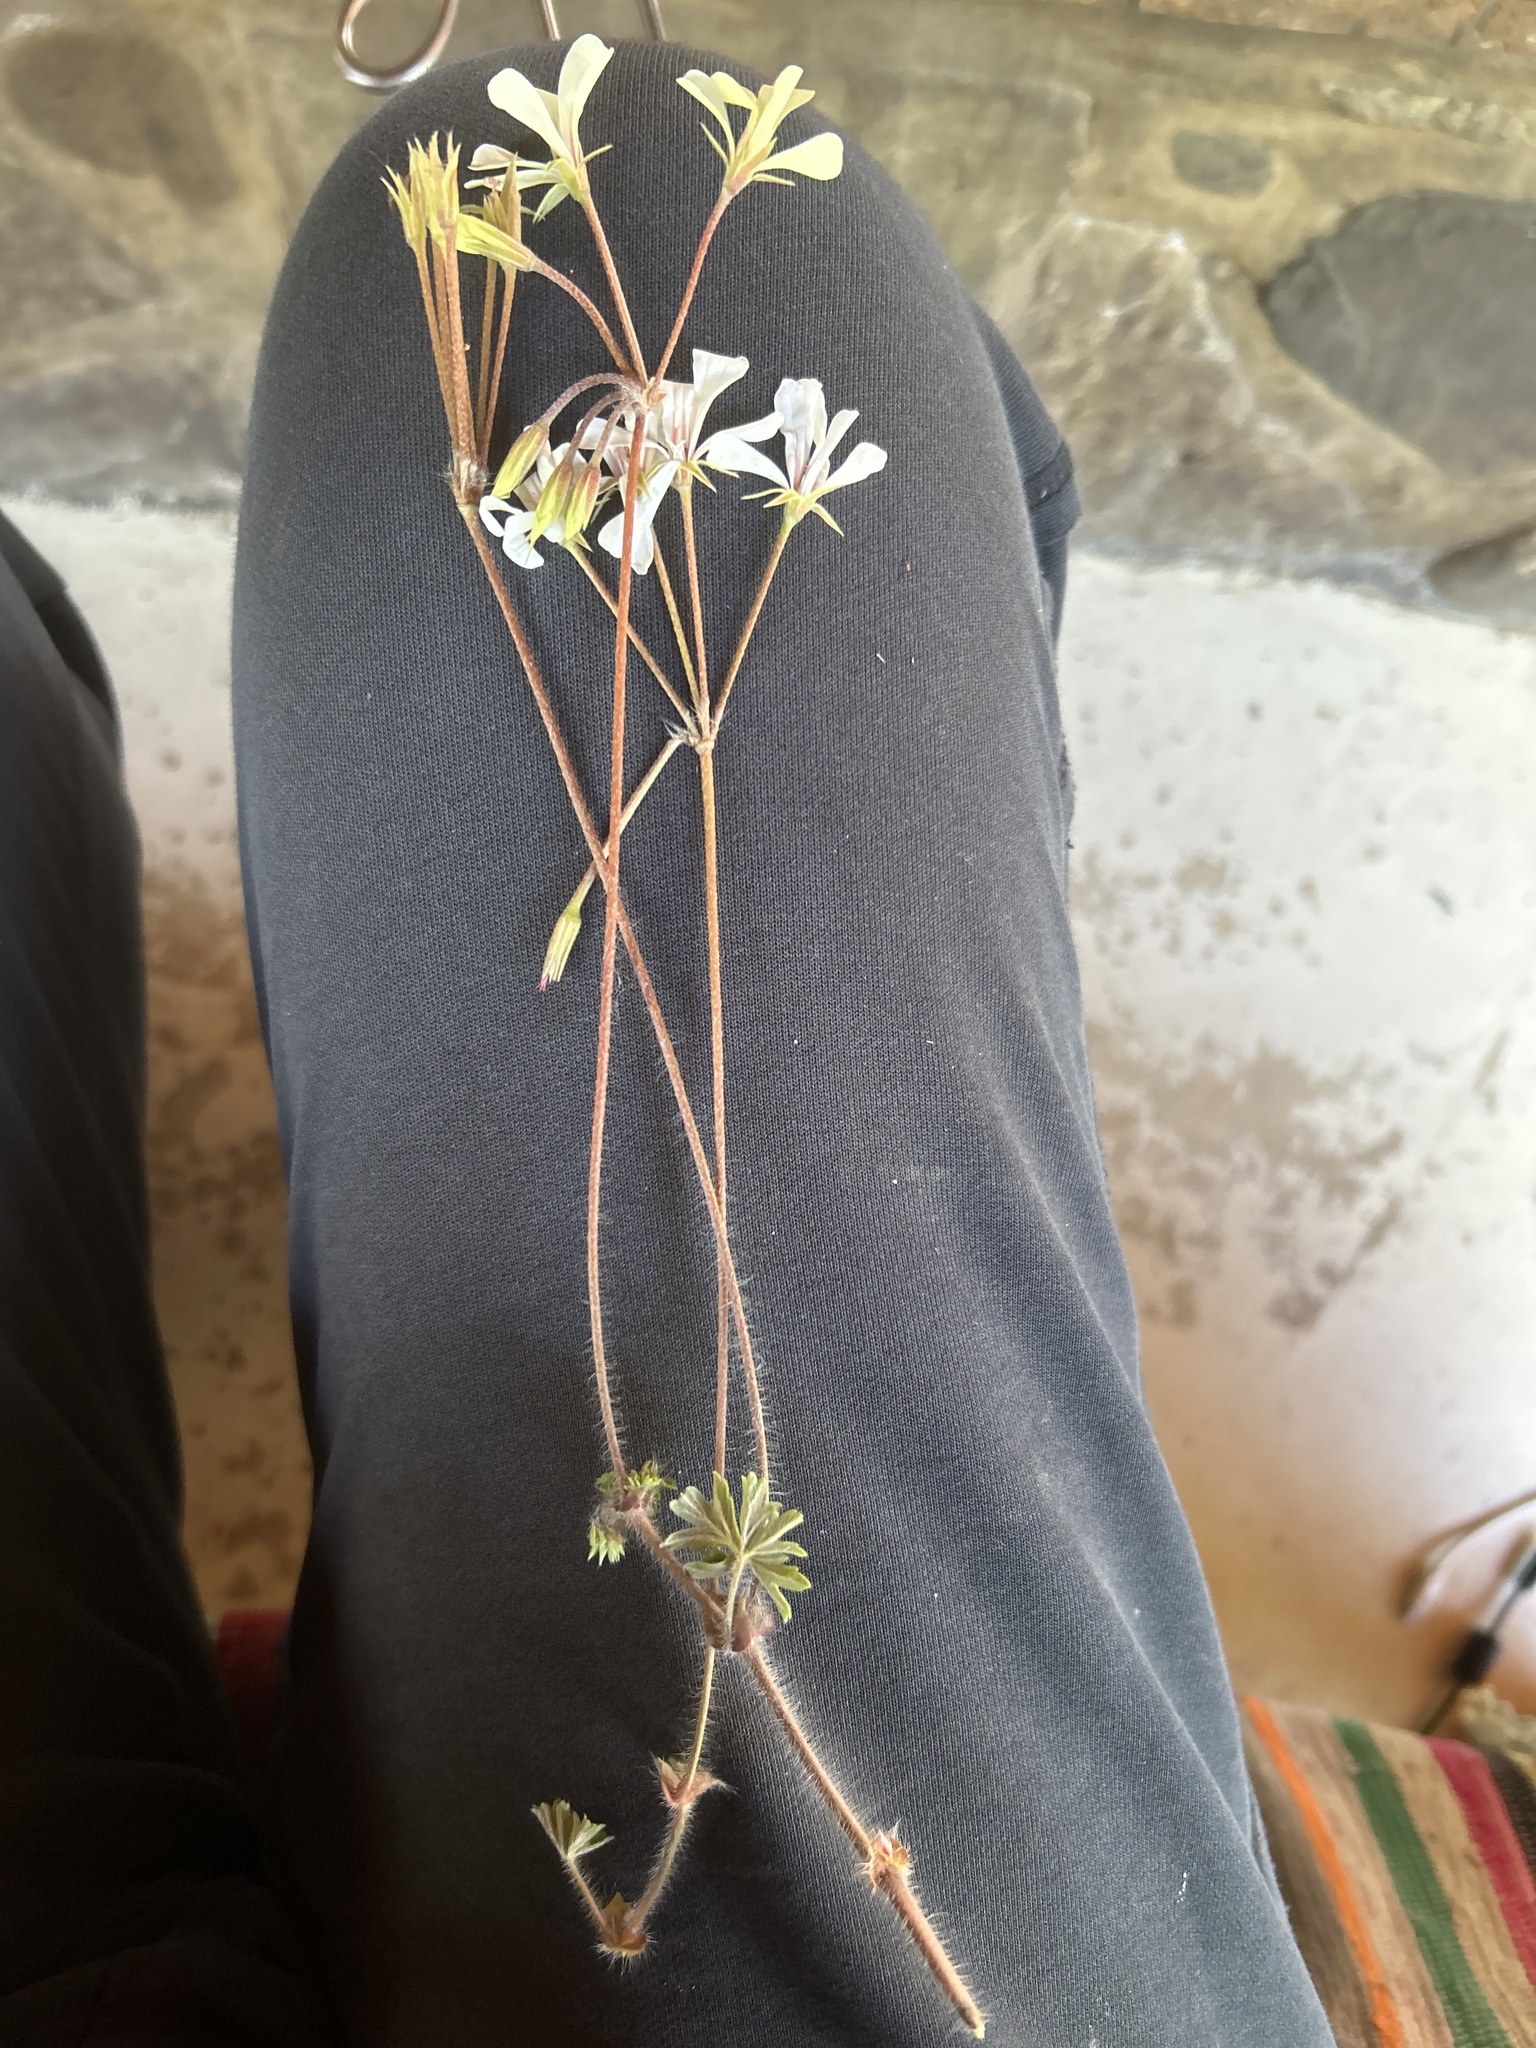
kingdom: Plantae
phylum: Tracheophyta
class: Magnoliopsida
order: Geraniales
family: Geraniaceae
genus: Pelargonium
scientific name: Pelargonium alchemilloides
